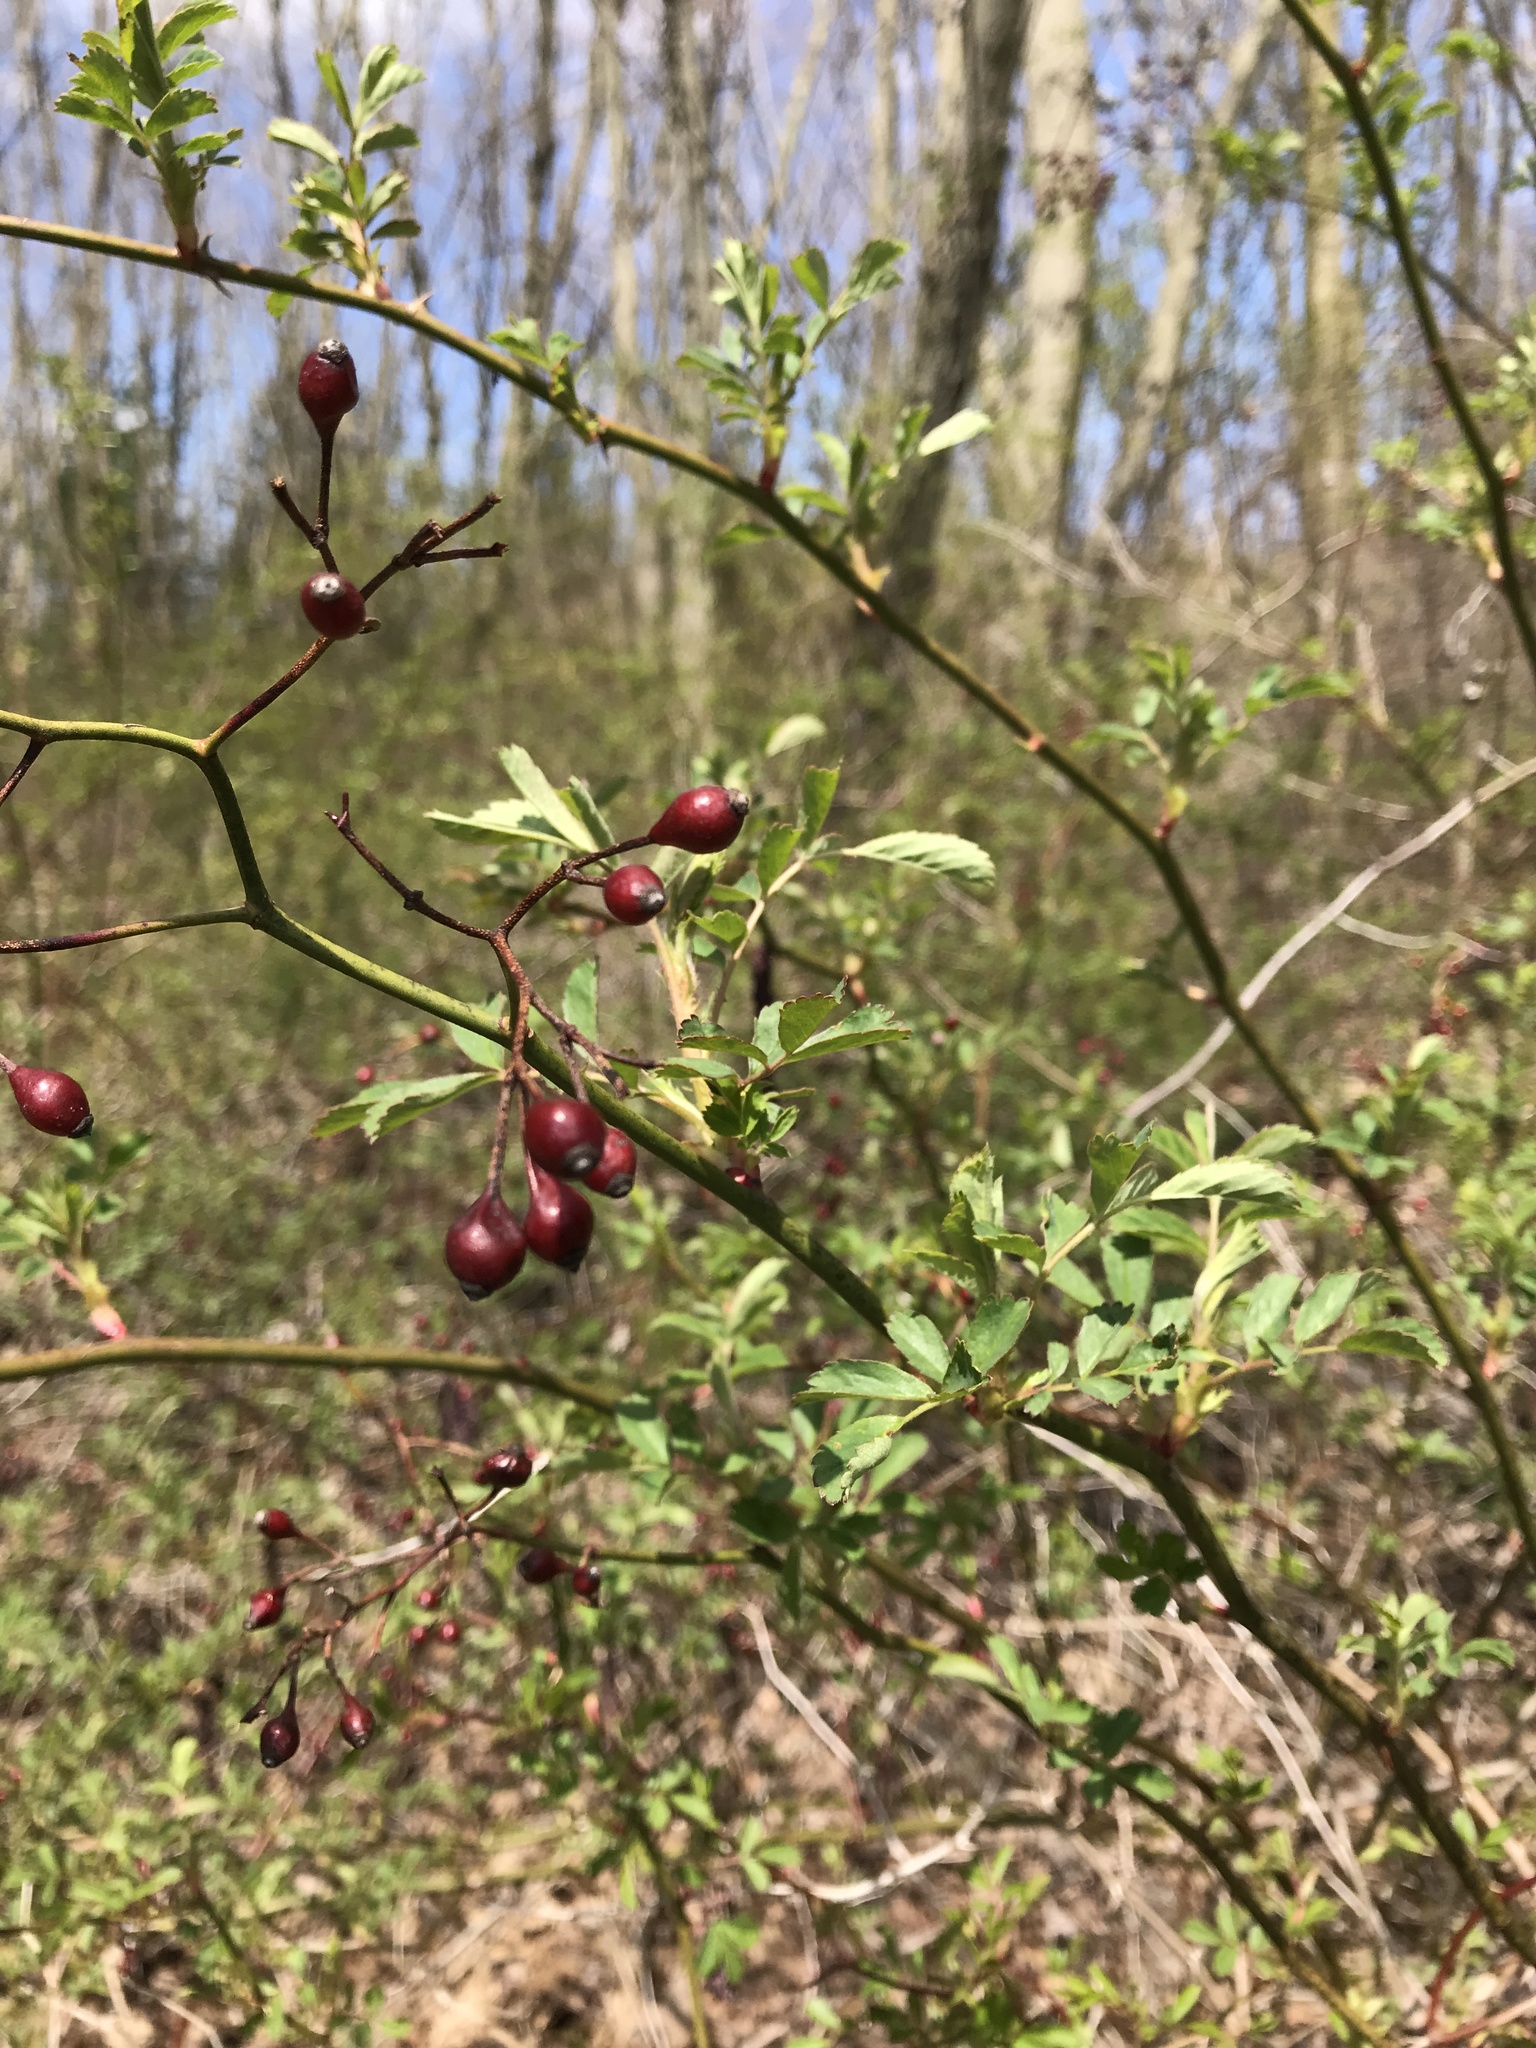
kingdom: Plantae
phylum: Tracheophyta
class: Magnoliopsida
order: Rosales
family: Rosaceae
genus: Rosa
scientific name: Rosa multiflora
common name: Multiflora rose
